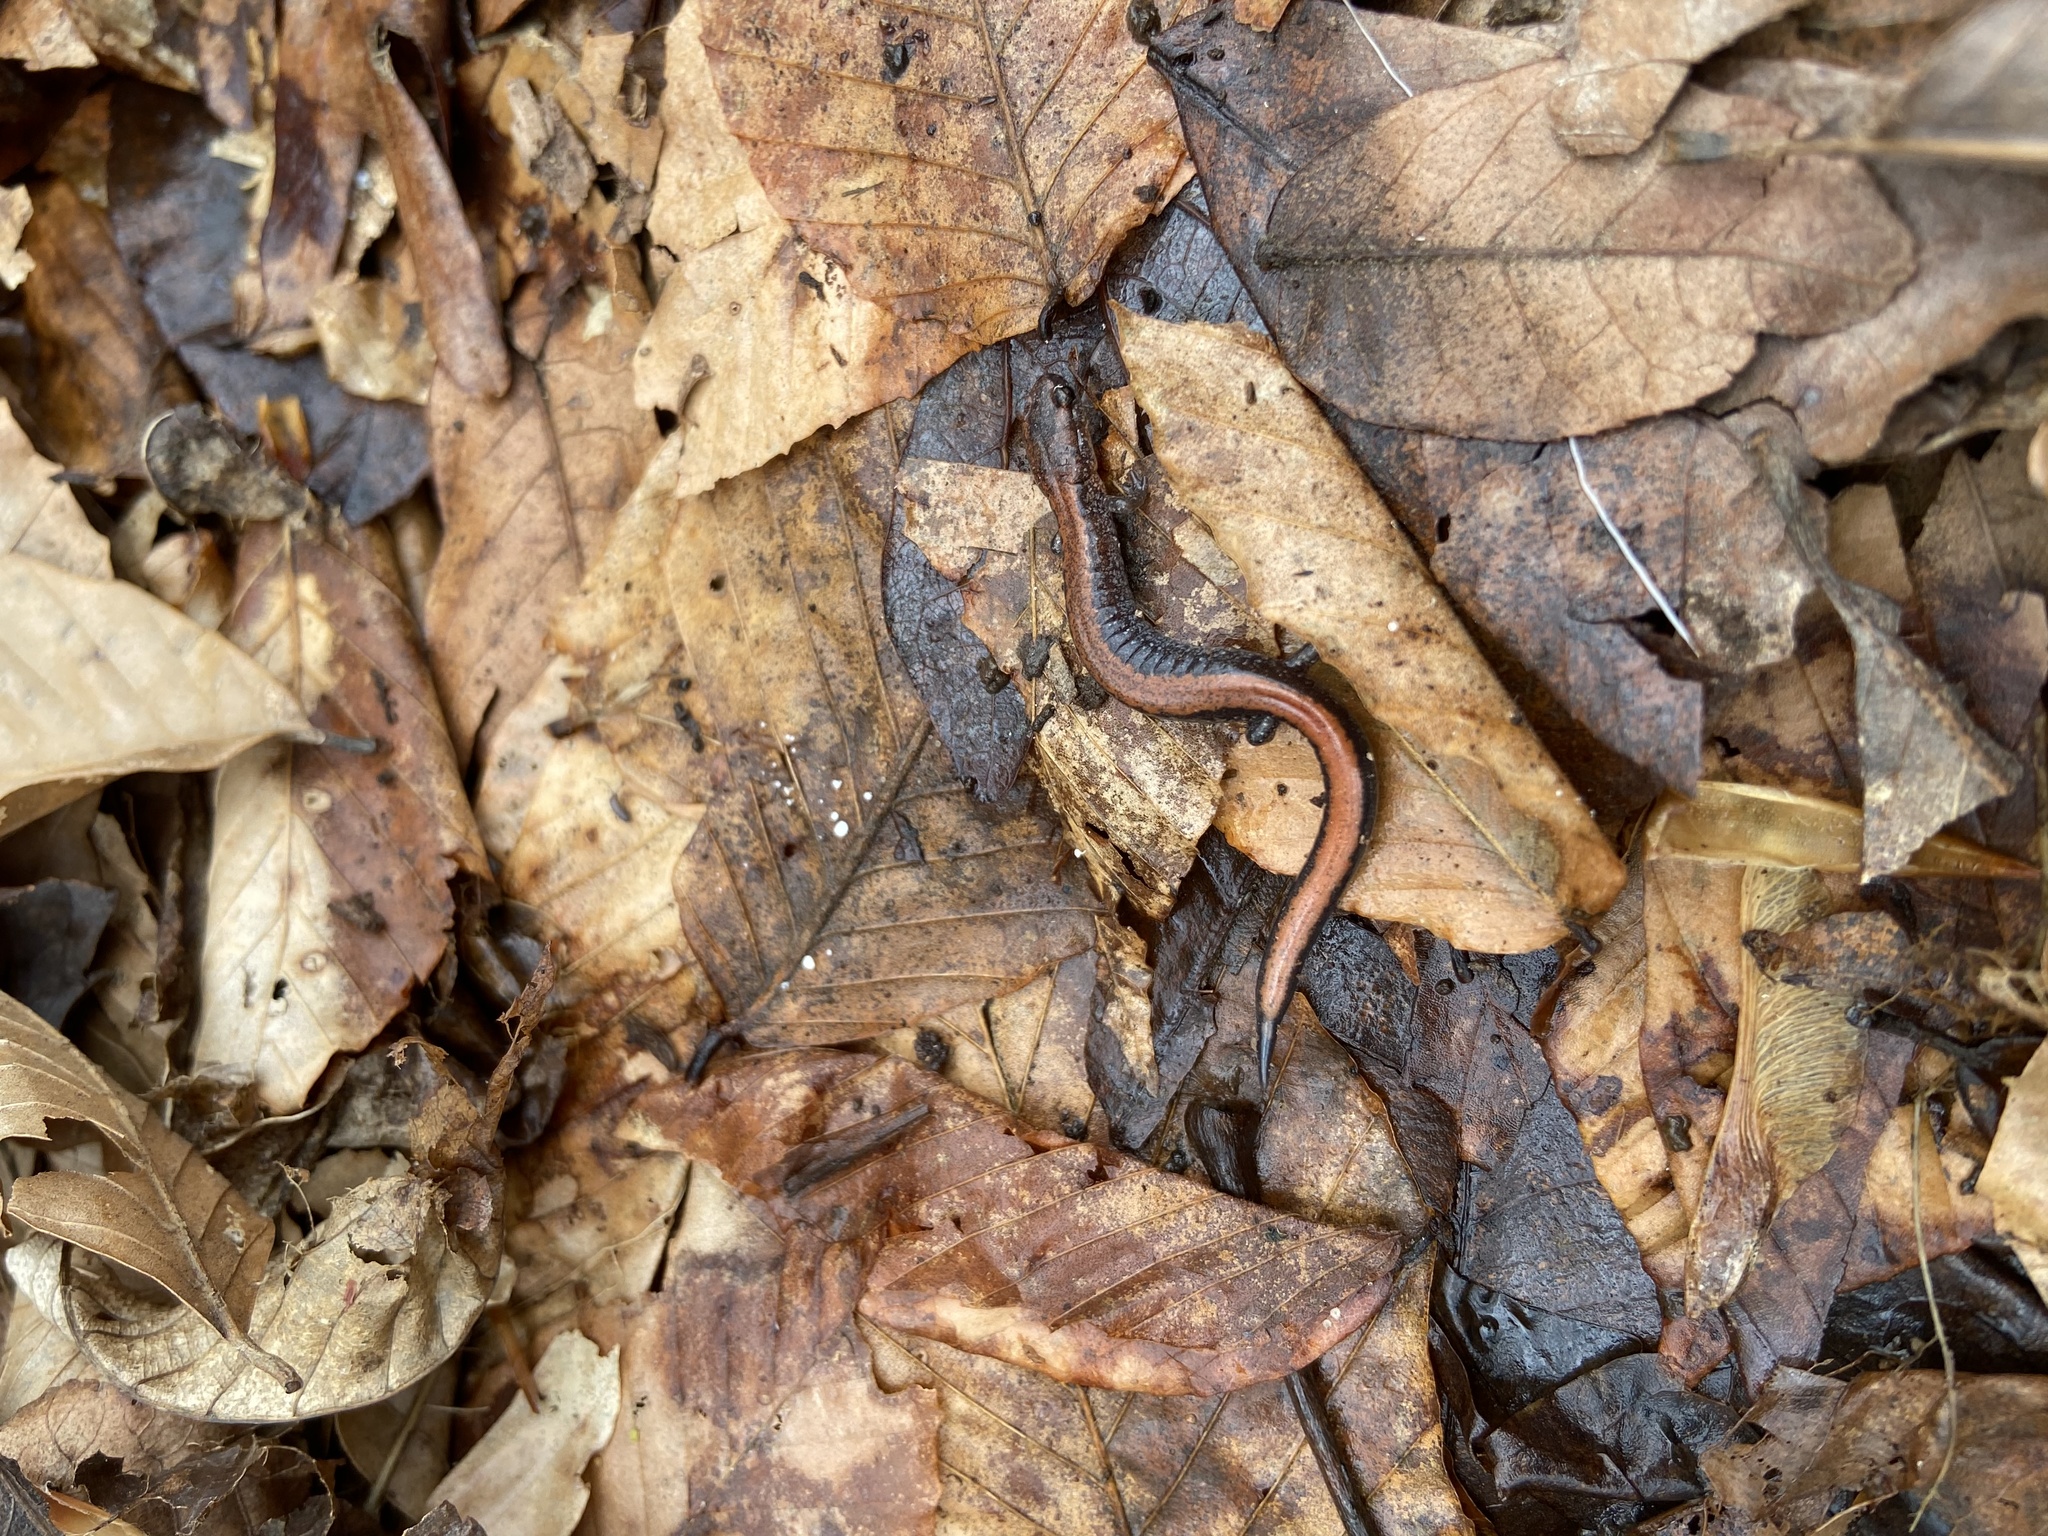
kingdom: Animalia
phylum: Chordata
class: Amphibia
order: Caudata
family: Plethodontidae
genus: Plethodon
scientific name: Plethodon cinereus
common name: Redback salamander
